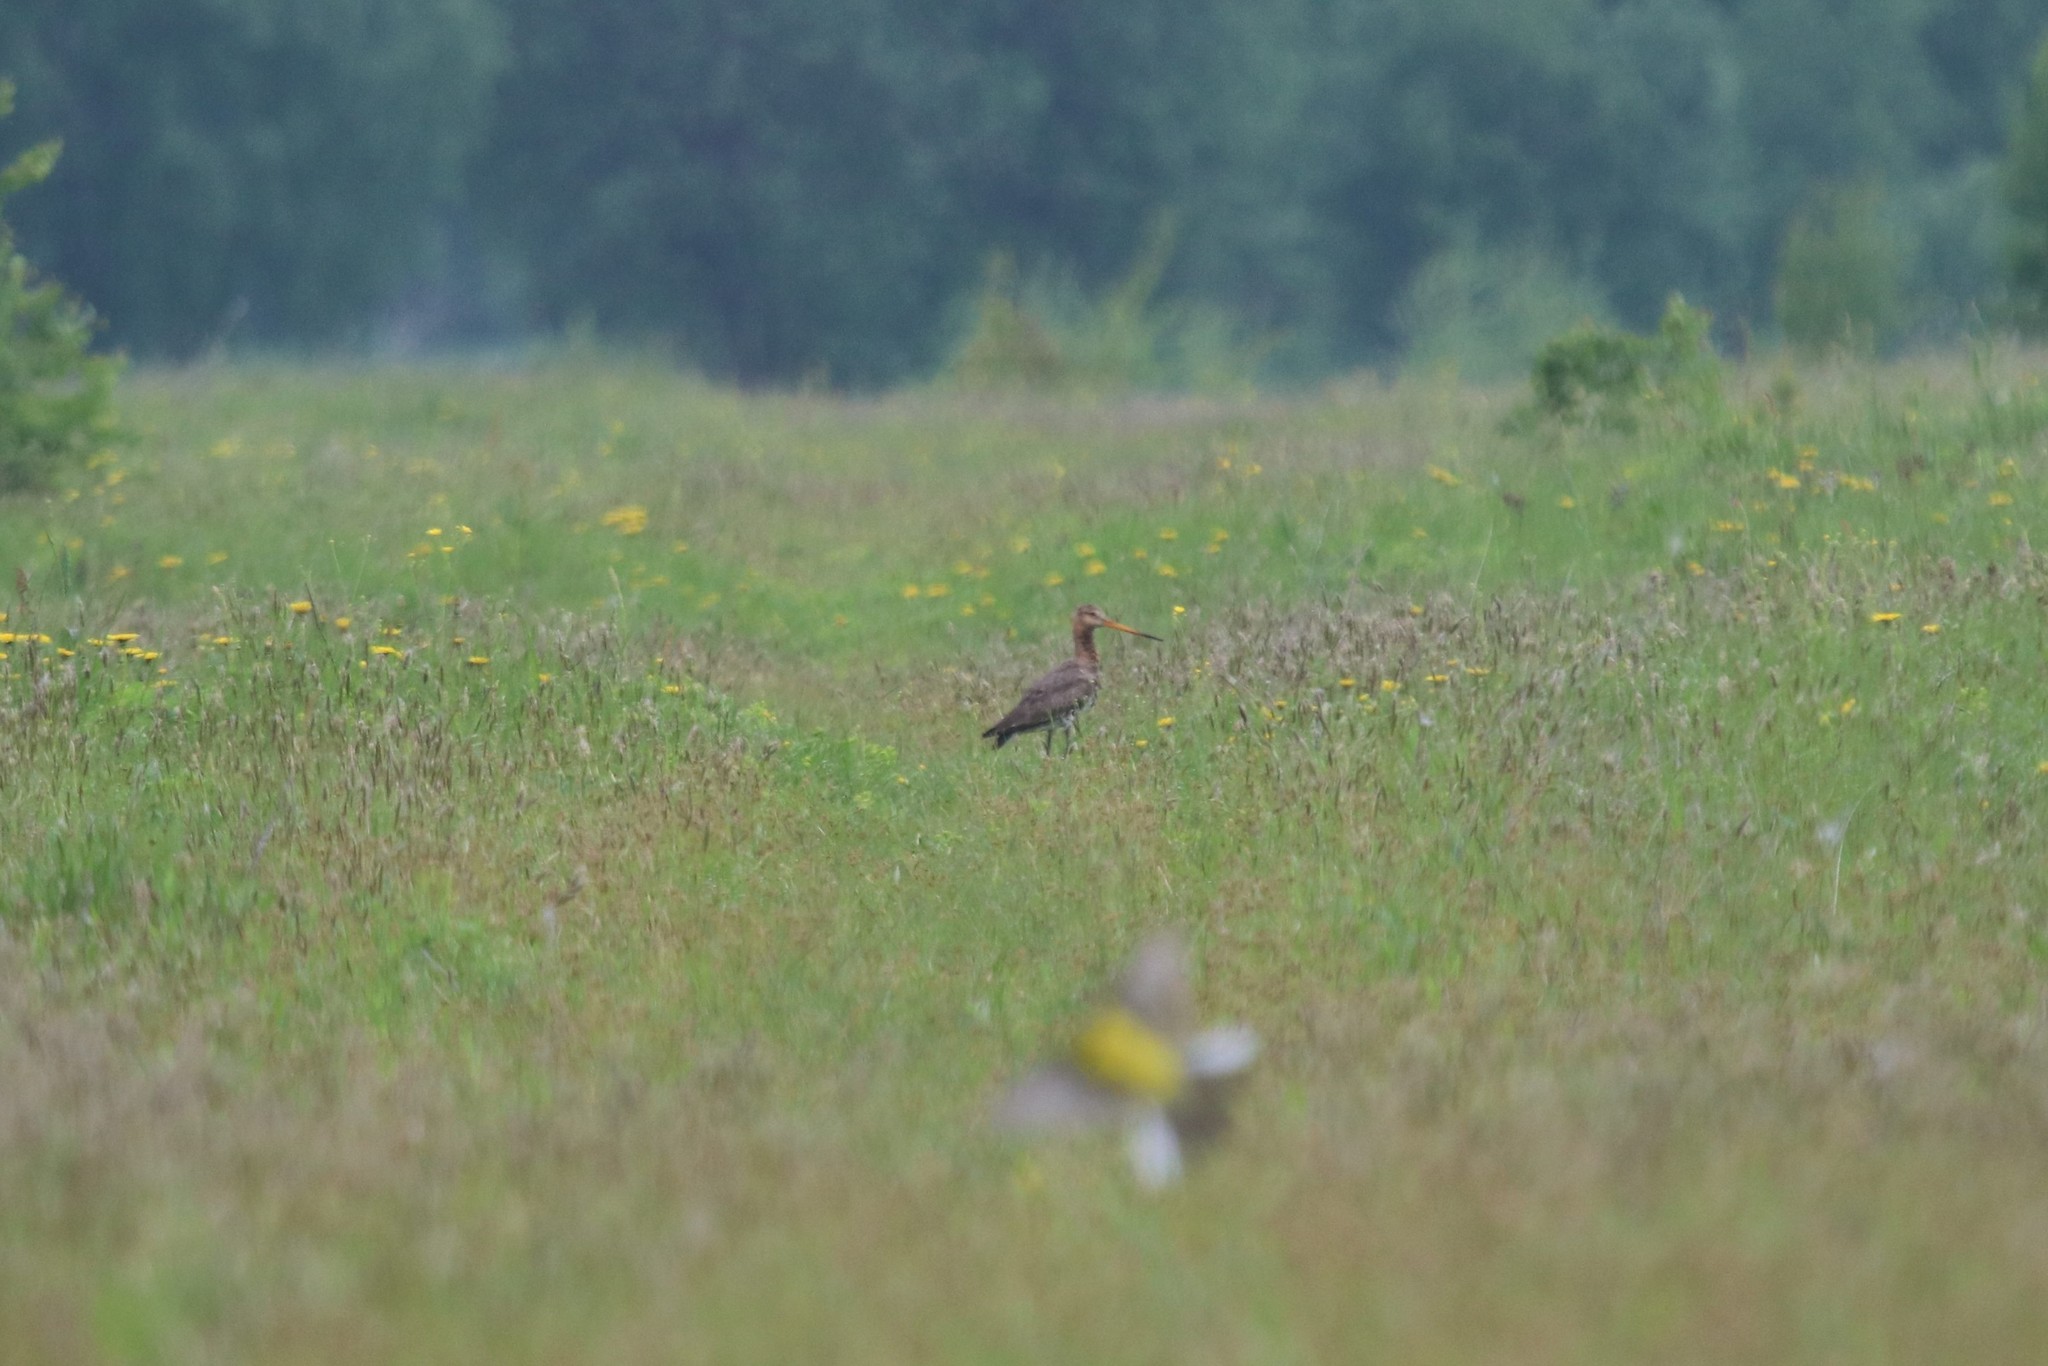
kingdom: Animalia
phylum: Chordata
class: Aves
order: Charadriiformes
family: Scolopacidae
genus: Limosa
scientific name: Limosa limosa
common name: Black-tailed godwit
